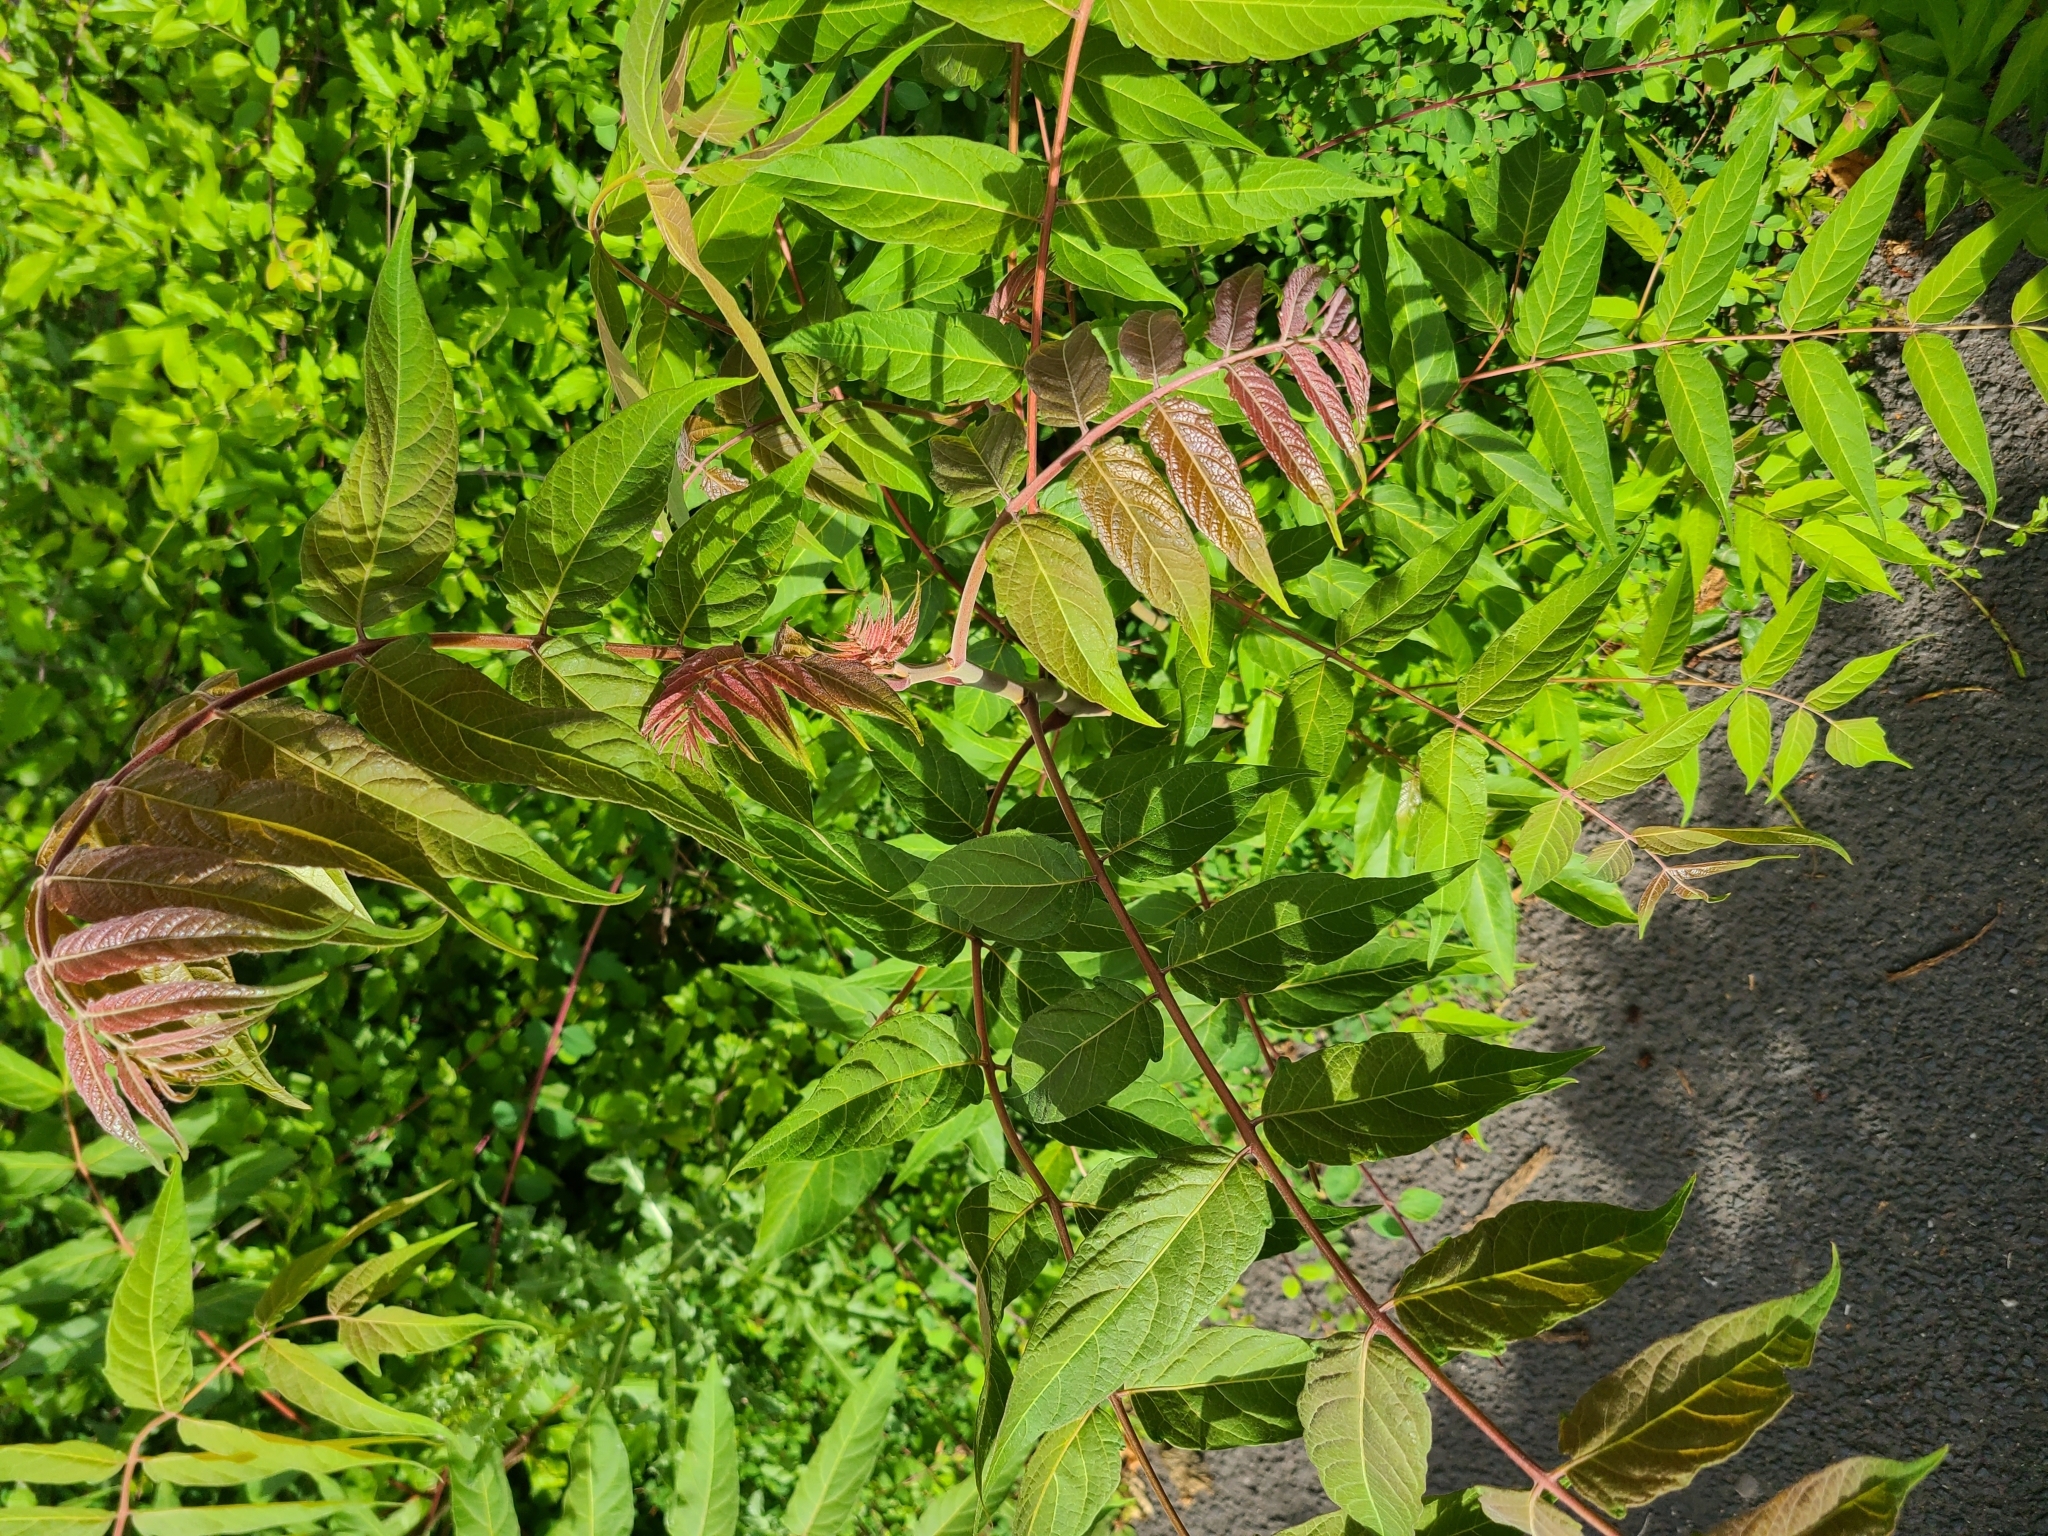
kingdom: Plantae
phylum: Tracheophyta
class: Magnoliopsida
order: Sapindales
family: Simaroubaceae
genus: Ailanthus
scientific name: Ailanthus altissima
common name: Tree-of-heaven
